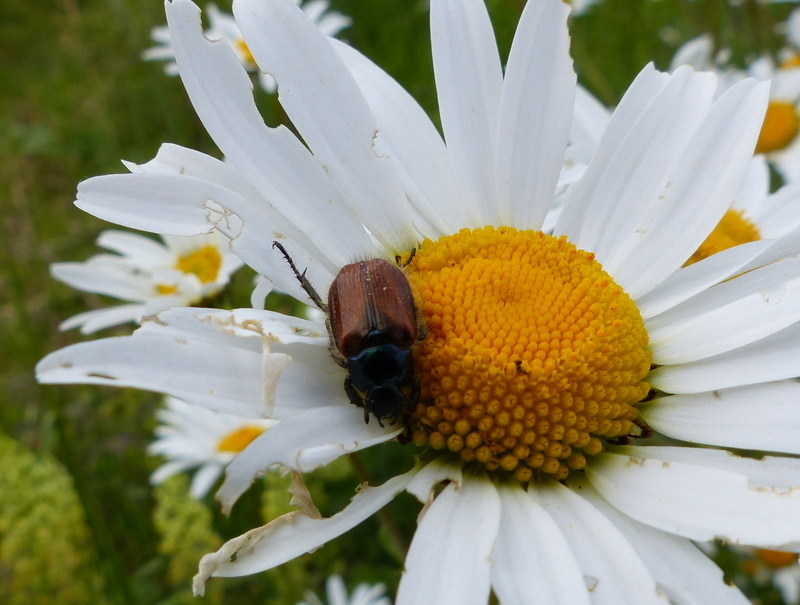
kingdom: Animalia
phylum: Arthropoda
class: Insecta
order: Coleoptera
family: Scarabaeidae
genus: Phyllopertha
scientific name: Phyllopertha horticola
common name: Garden chafer
